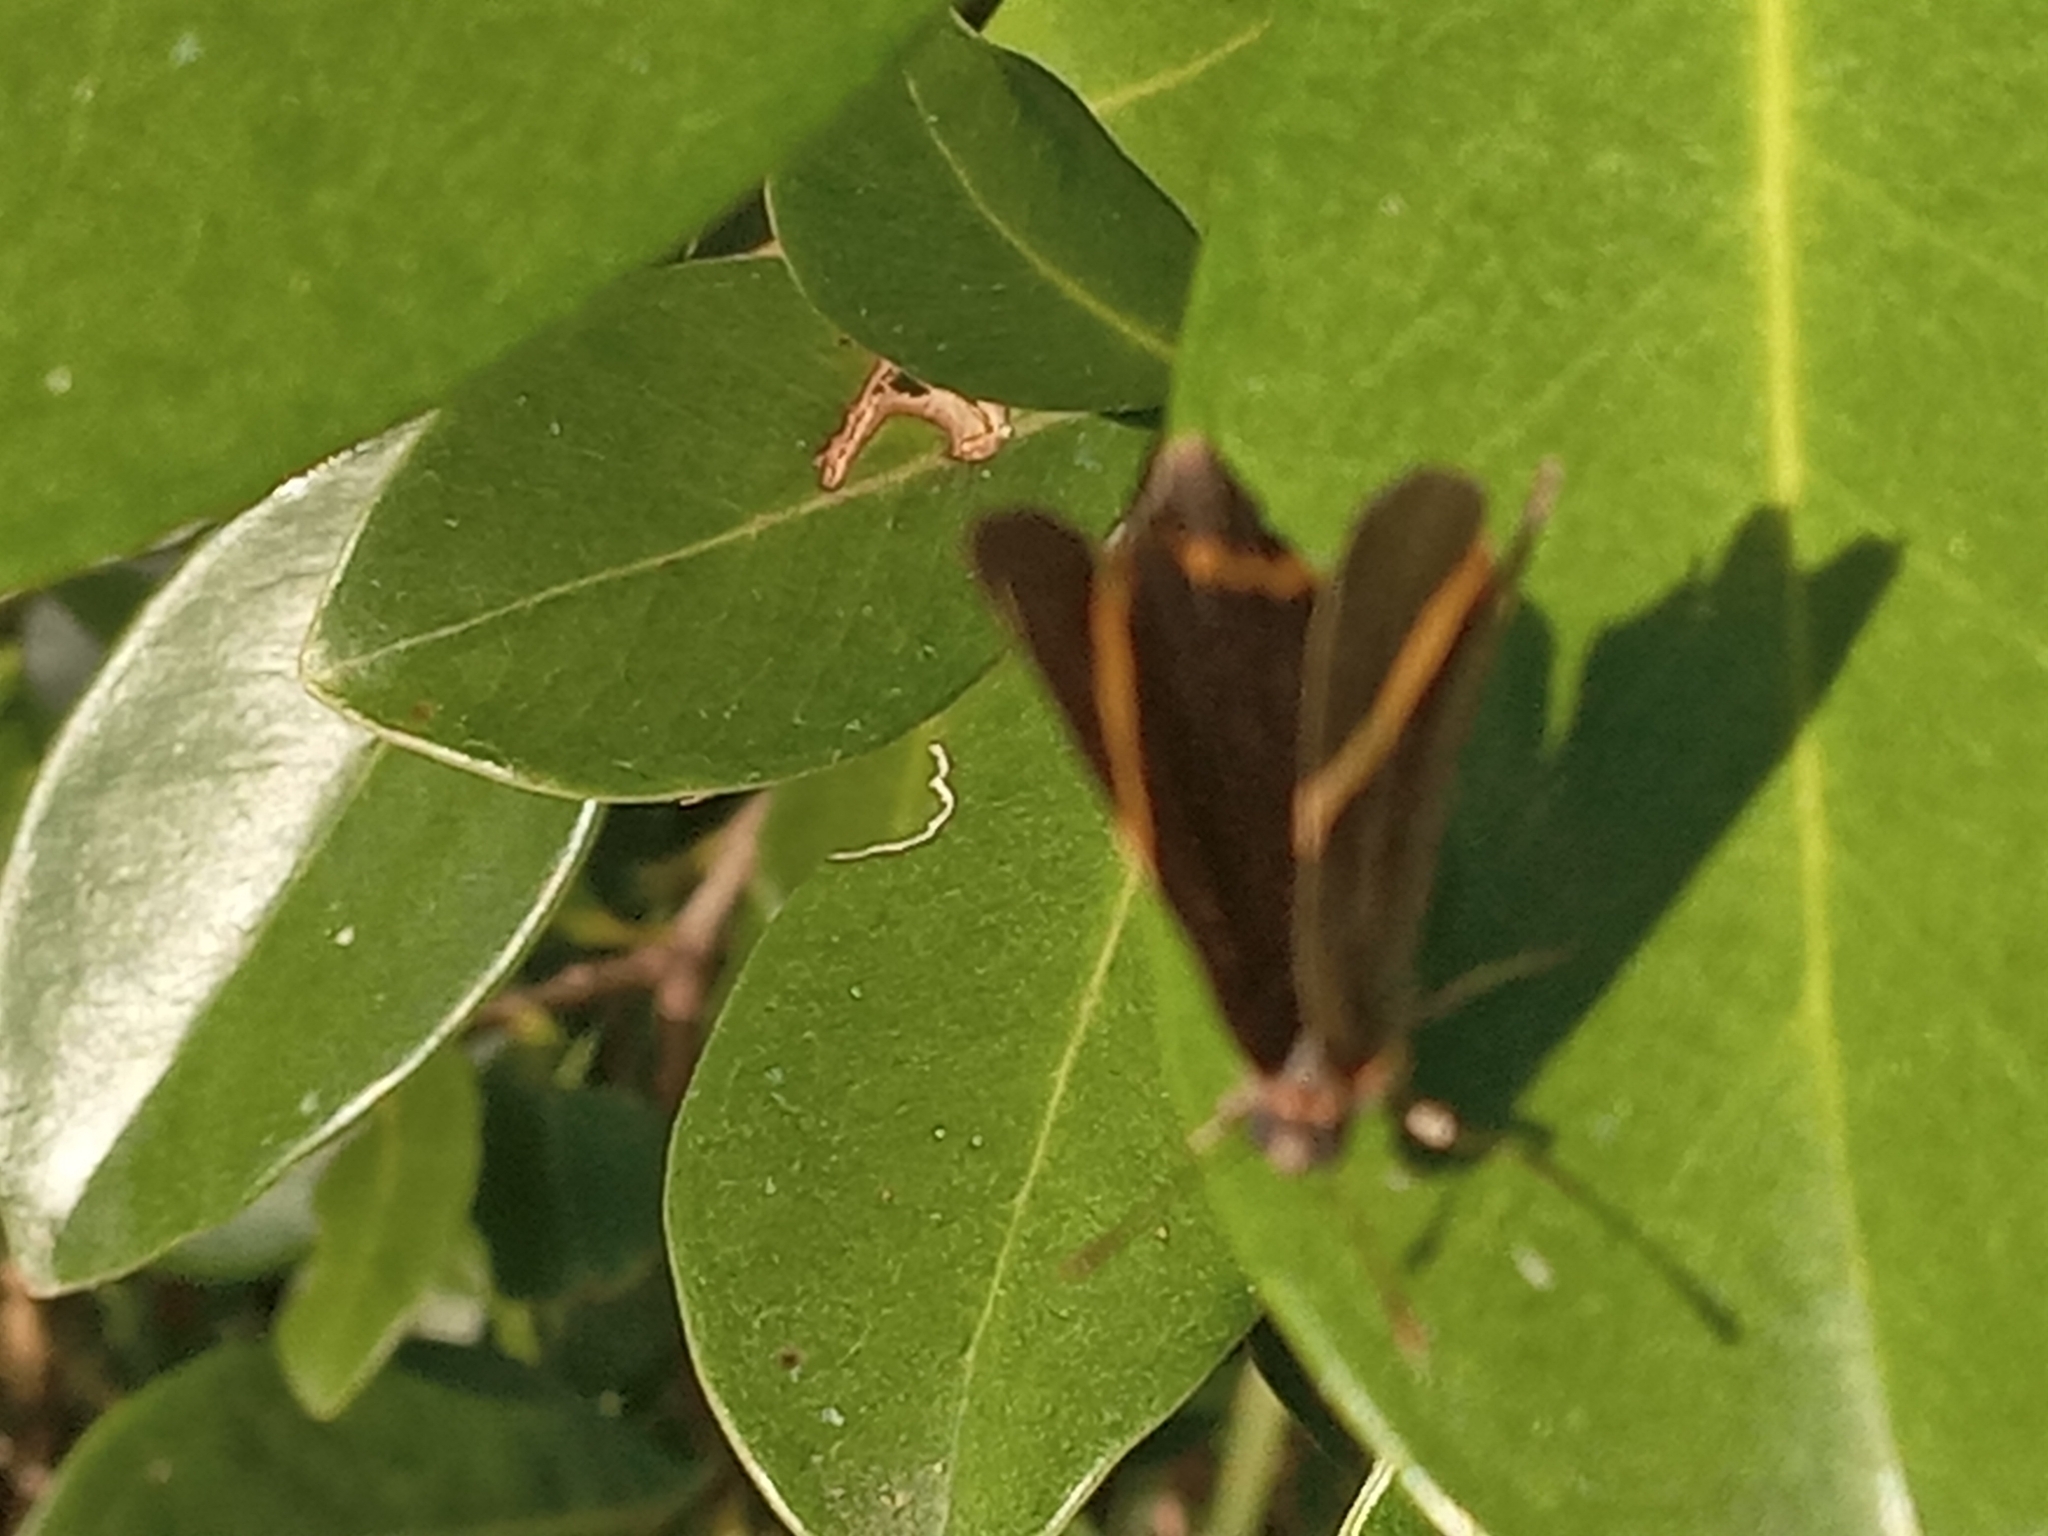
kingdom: Animalia
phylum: Arthropoda
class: Insecta
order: Lepidoptera
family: Riodinidae
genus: Riodina
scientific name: Riodina lysippoides
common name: Little dancer metalmark
